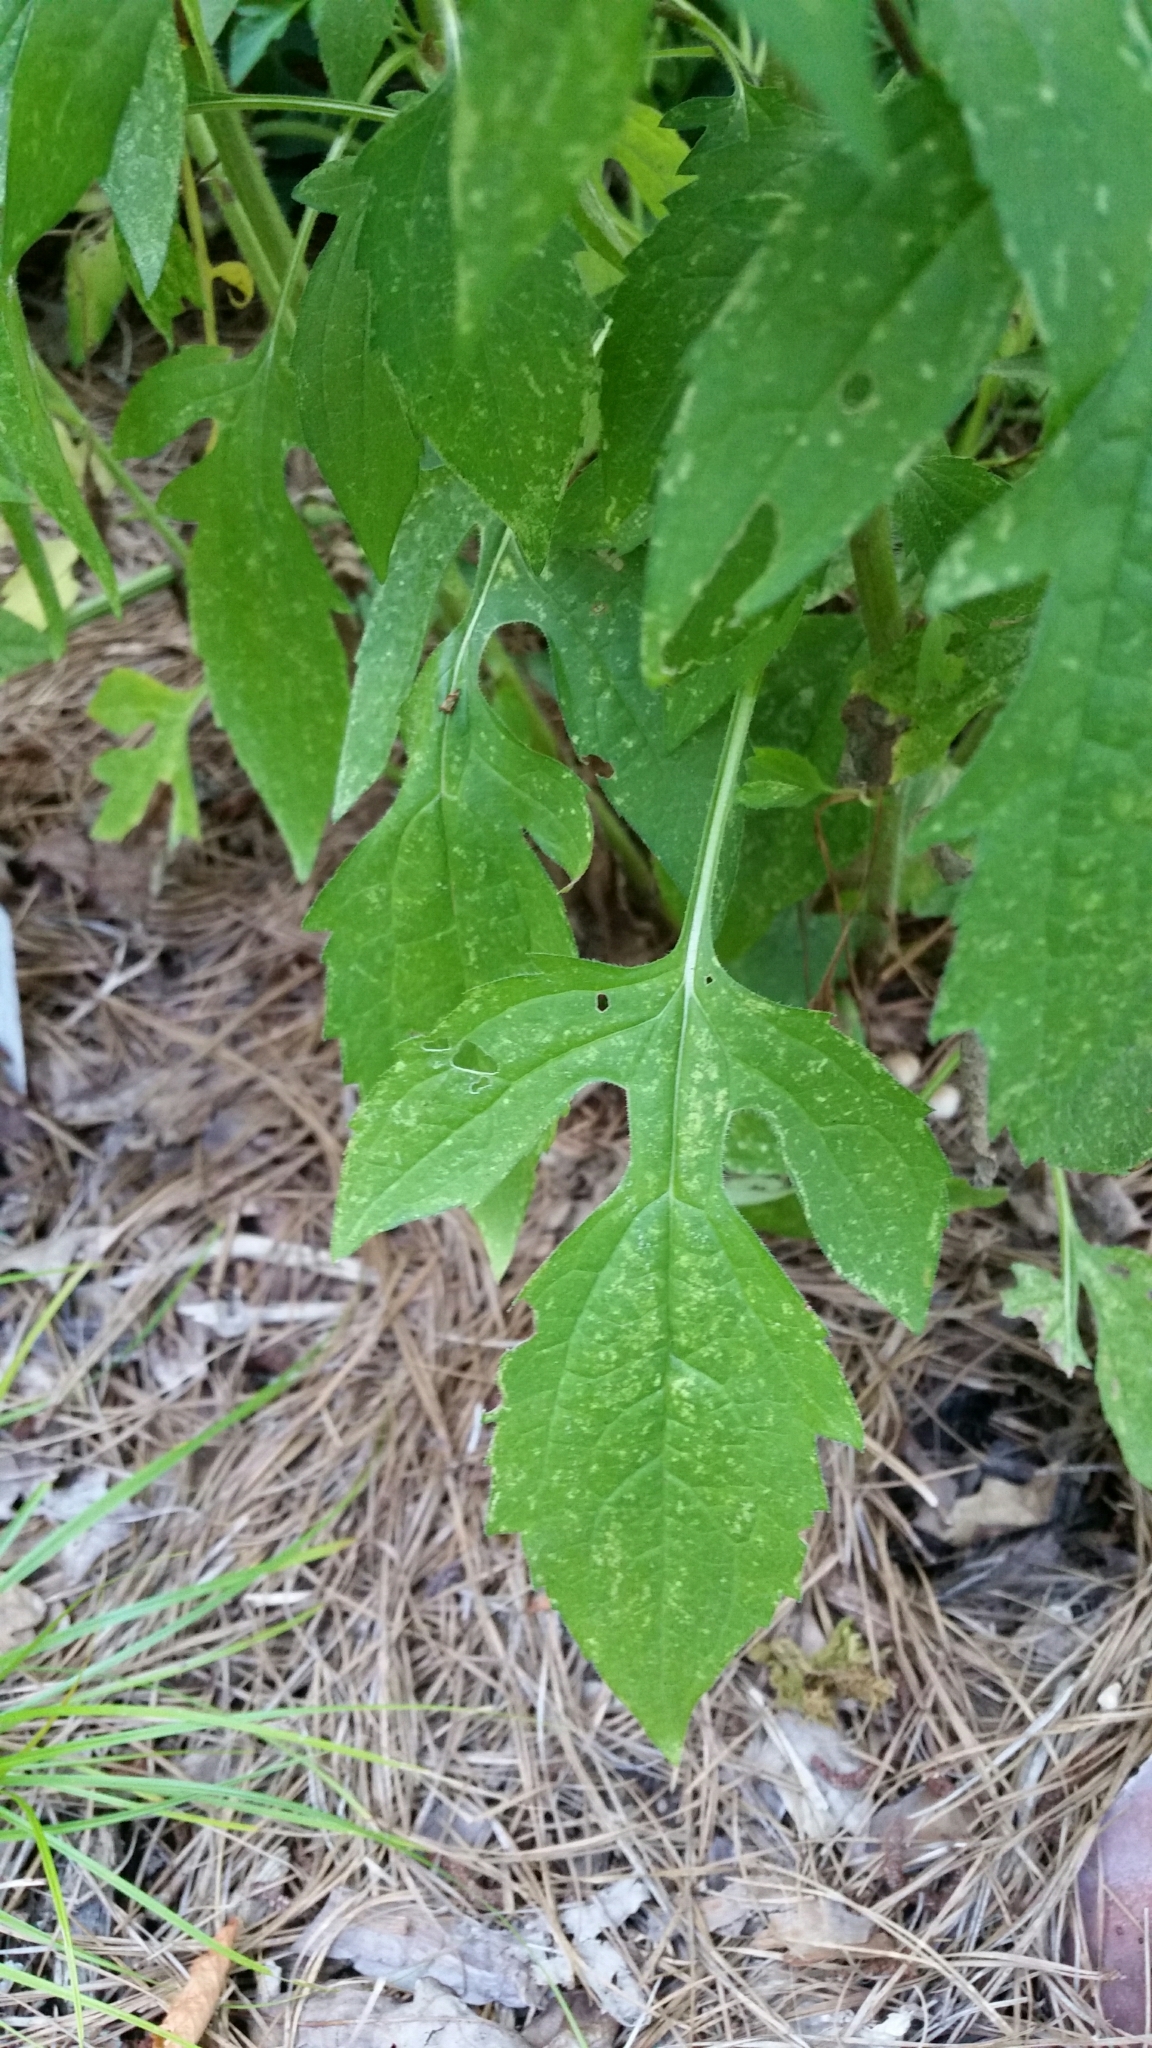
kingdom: Plantae
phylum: Tracheophyta
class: Magnoliopsida
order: Asterales
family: Asteraceae
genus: Rudbeckia
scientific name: Rudbeckia triloba
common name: Thin-leaved coneflower
